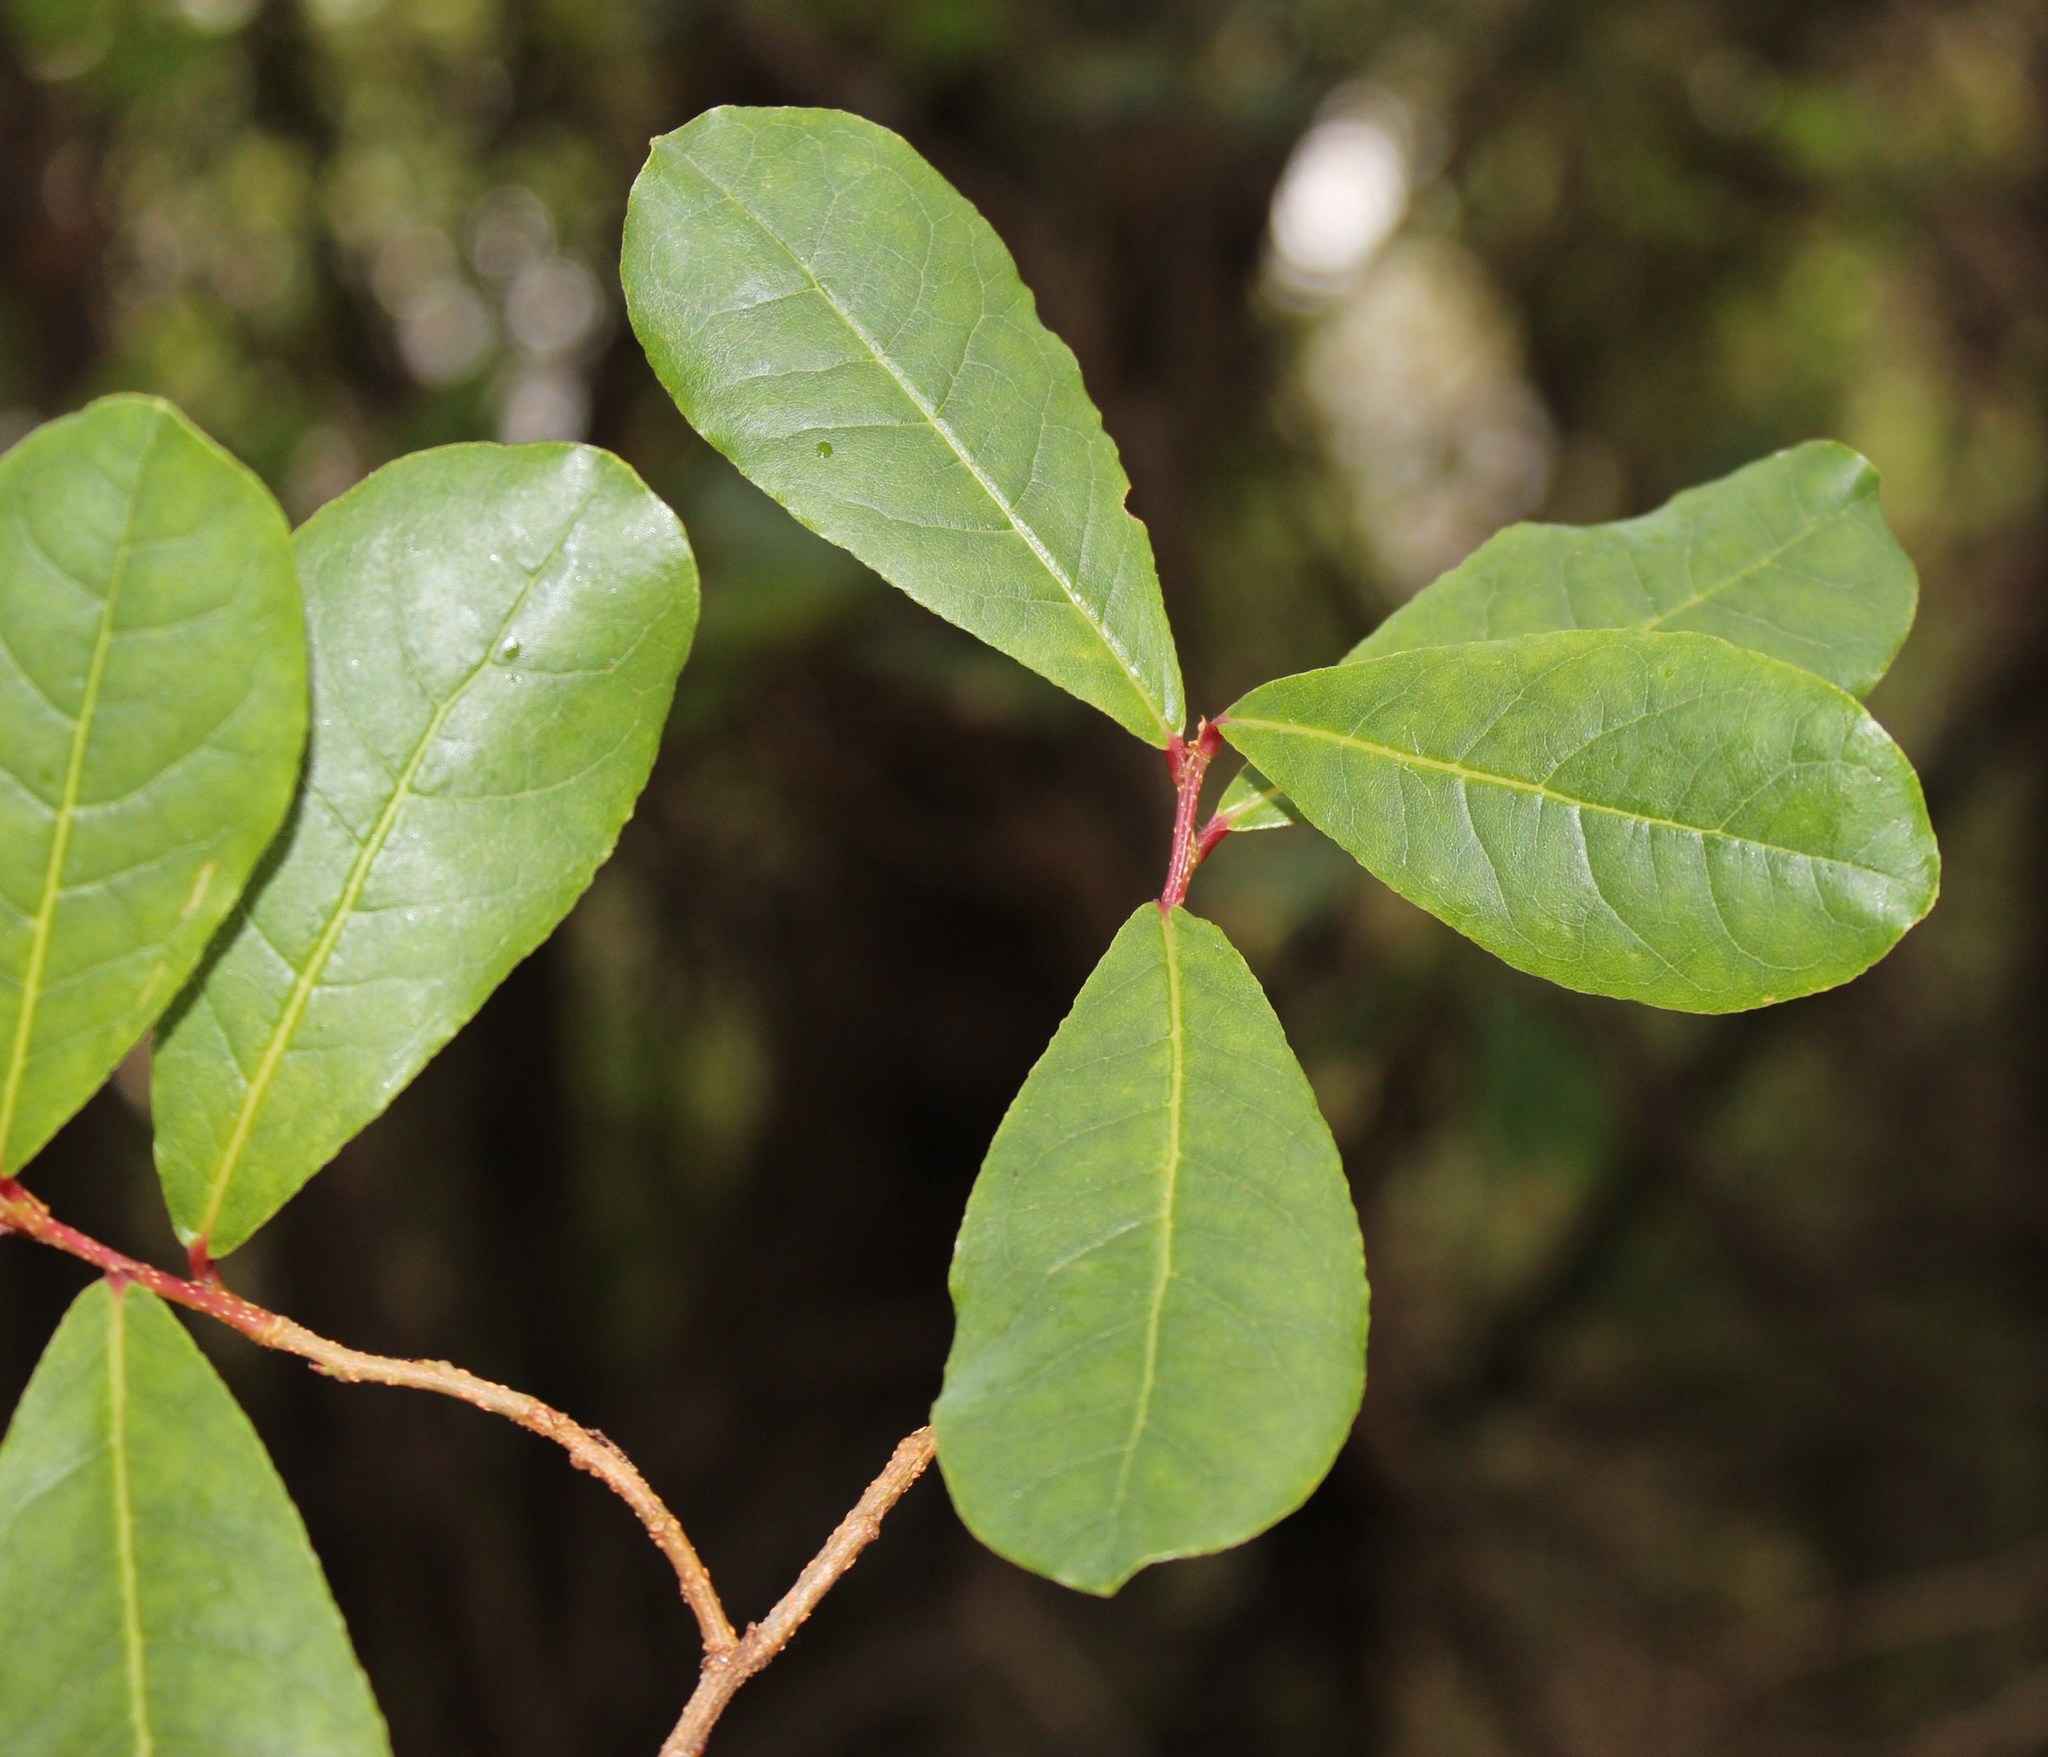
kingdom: Plantae
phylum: Tracheophyta
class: Magnoliopsida
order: Malpighiales
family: Phyllanthaceae
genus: Lachnostylis
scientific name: Lachnostylis hirta
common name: Coalwood
